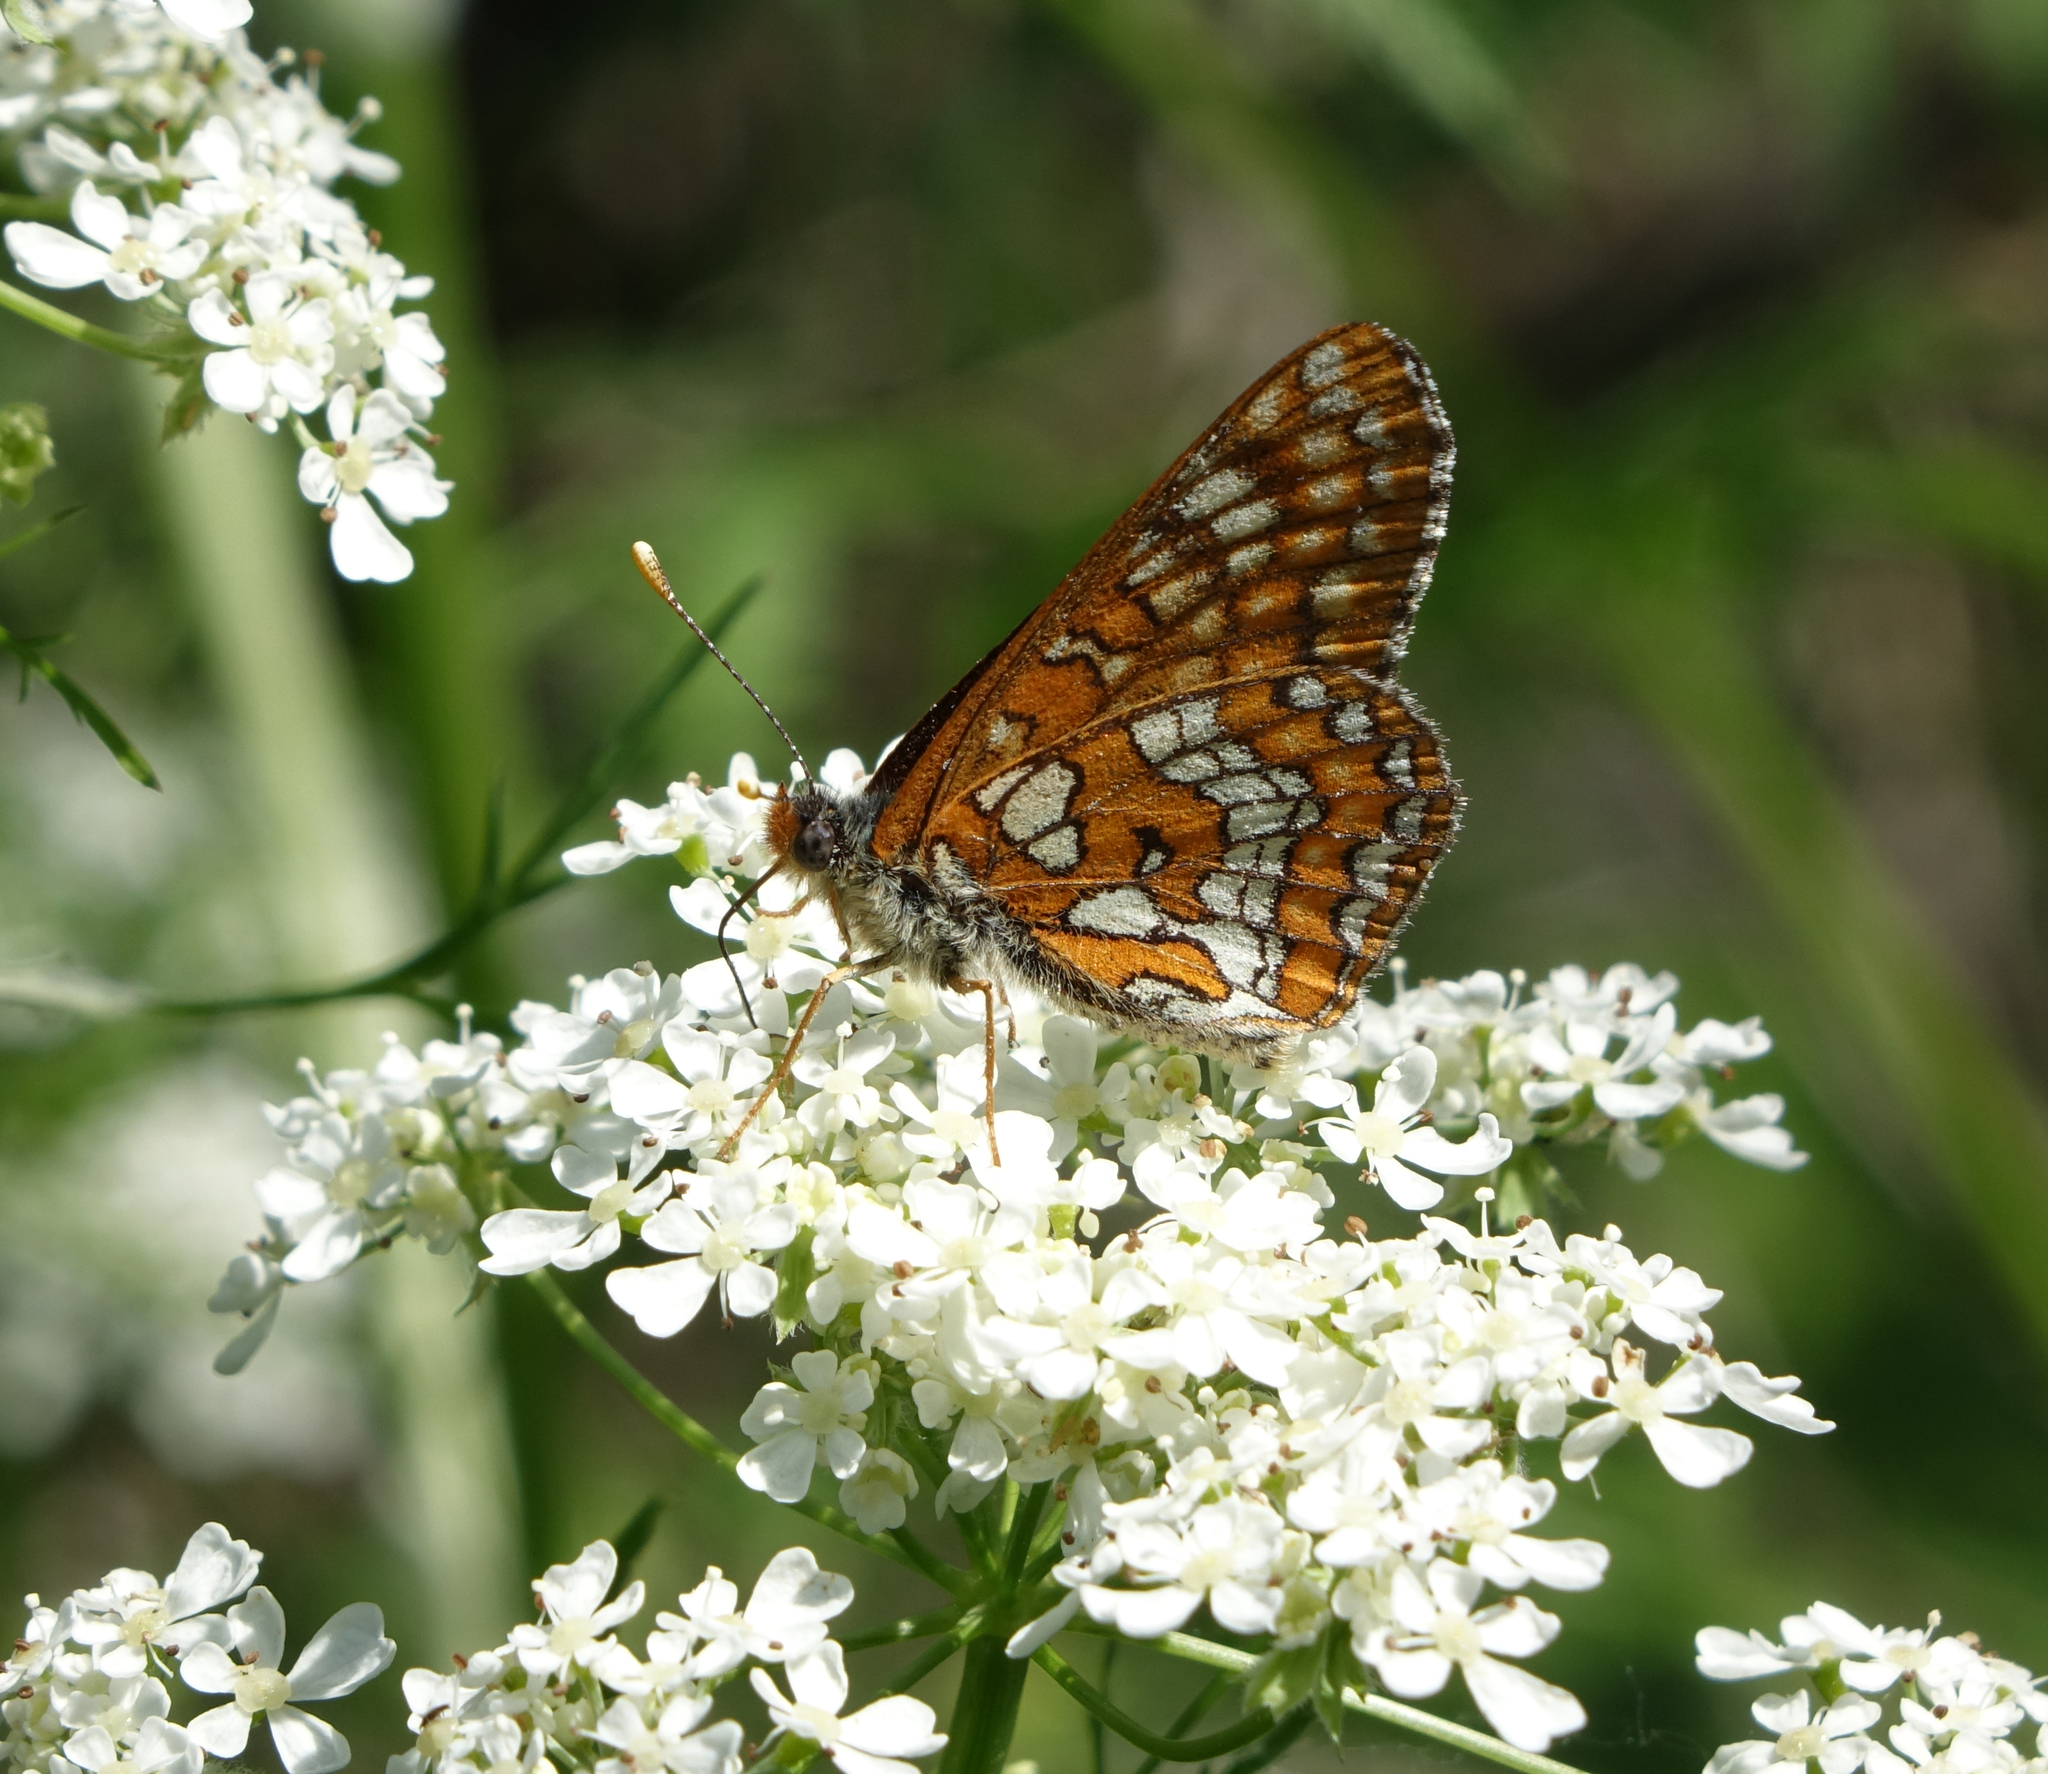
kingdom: Animalia
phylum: Arthropoda
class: Insecta
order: Lepidoptera
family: Nymphalidae
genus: Euphydryas
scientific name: Euphydryas maturna
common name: Scarce fritillary
